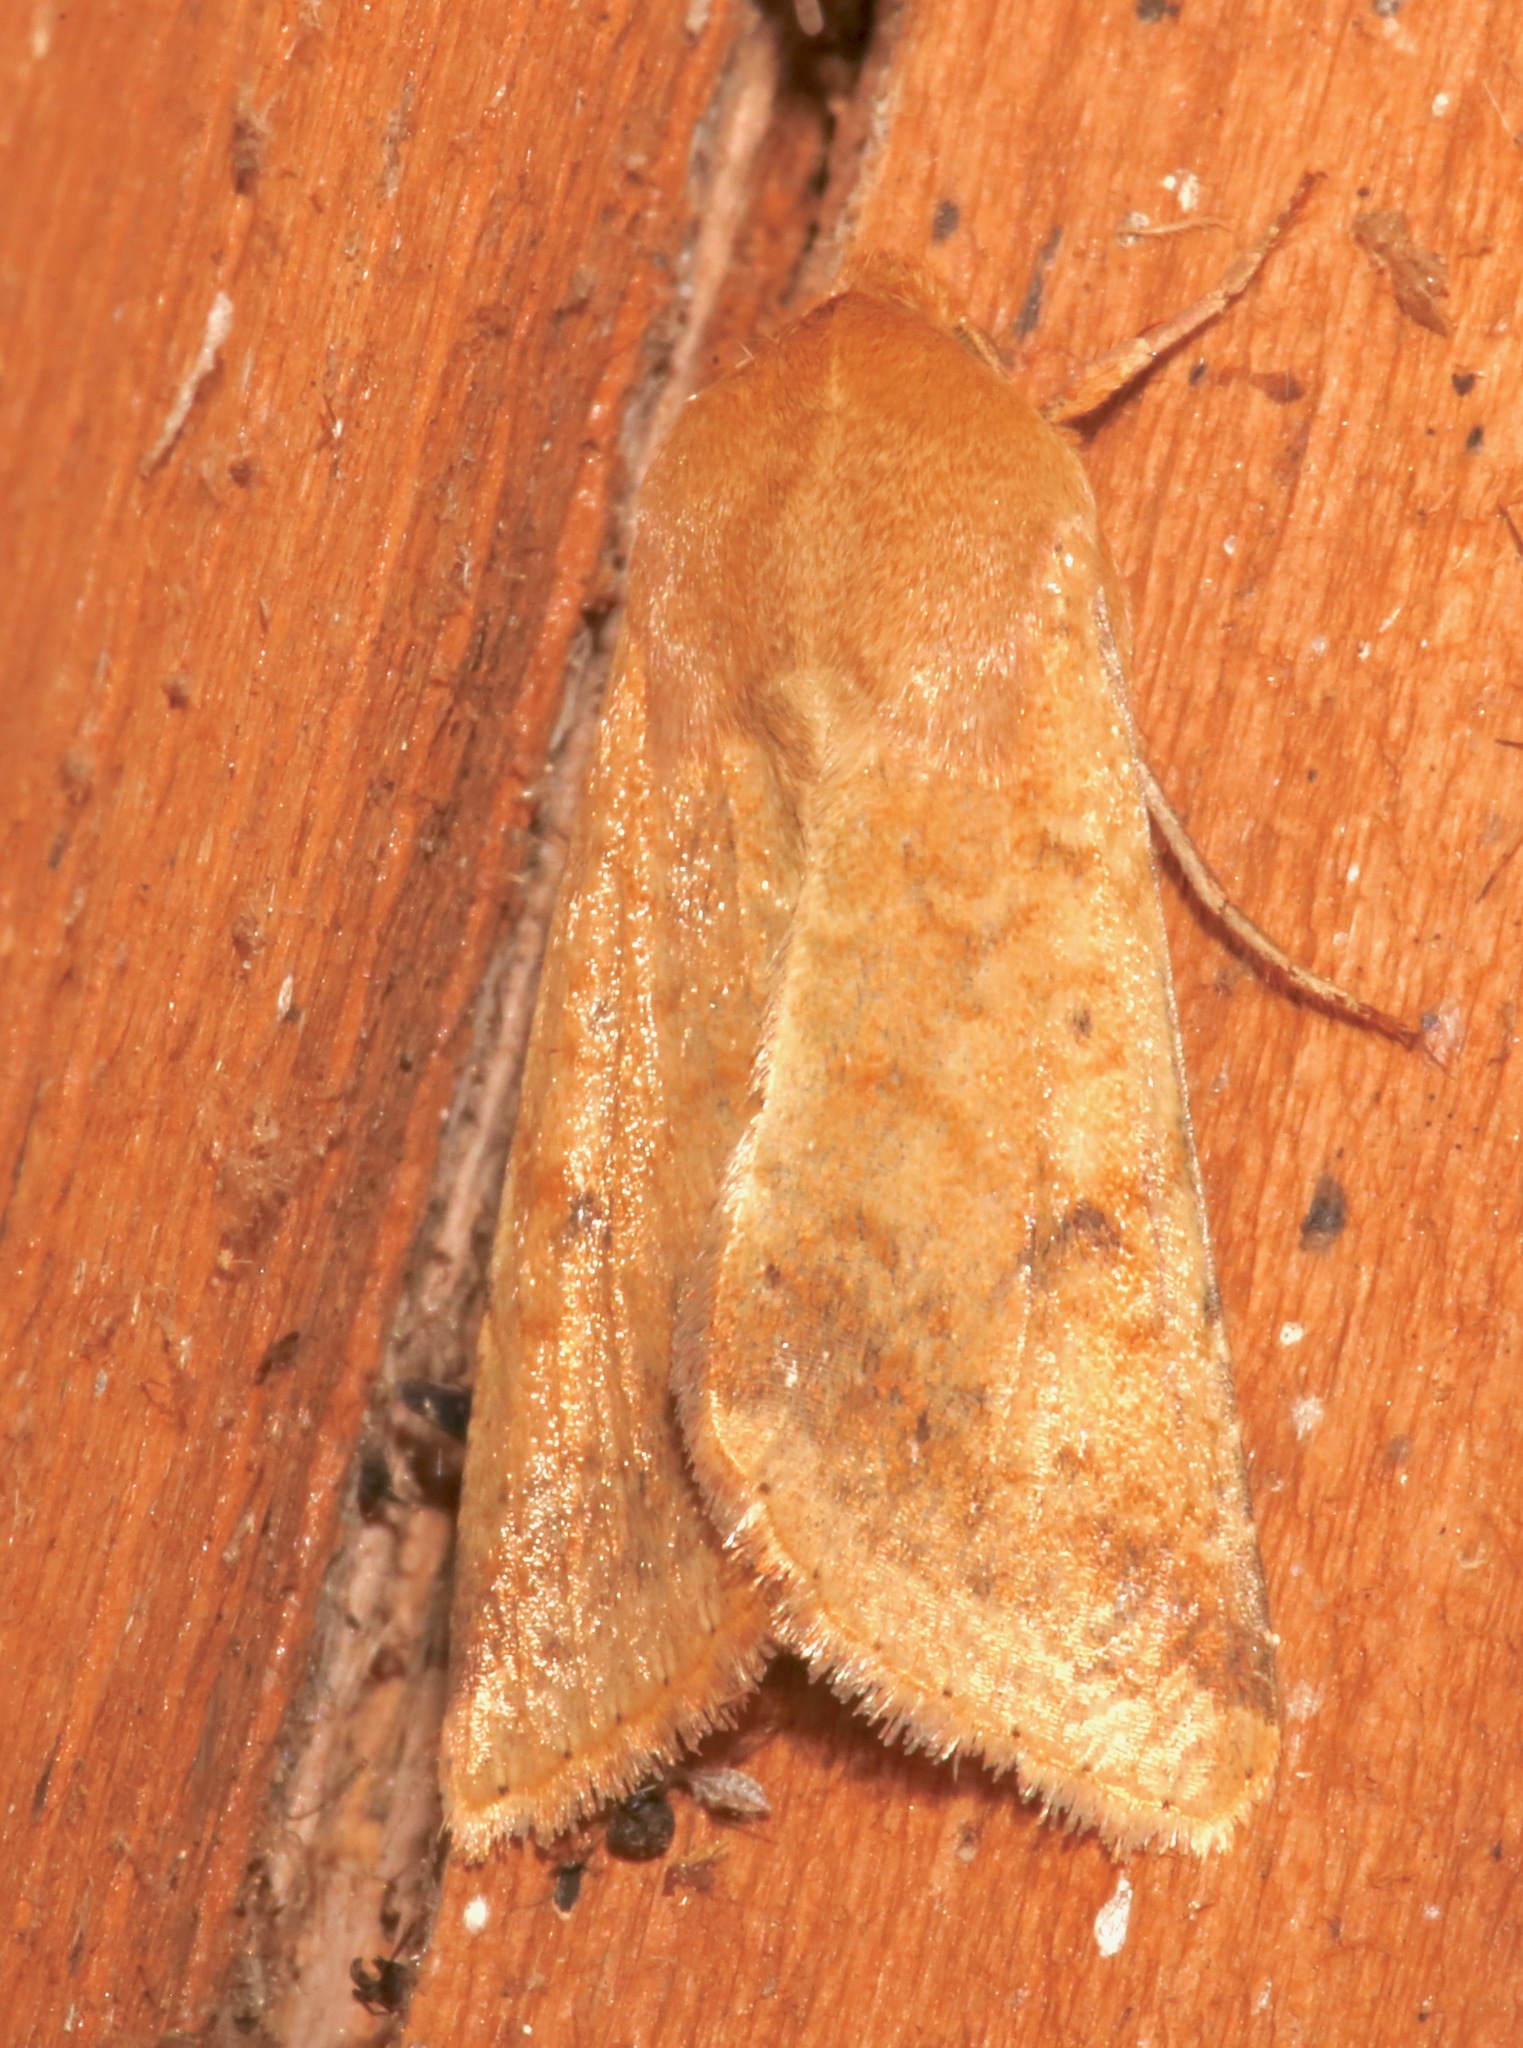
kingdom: Animalia
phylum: Arthropoda
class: Insecta
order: Lepidoptera
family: Noctuidae
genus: Helicoverpa
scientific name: Helicoverpa zea
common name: Bollworm
